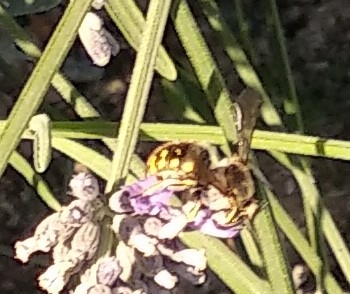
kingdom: Animalia
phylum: Arthropoda
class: Insecta
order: Hymenoptera
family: Megachilidae
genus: Anthidium
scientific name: Anthidium manicatum
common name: Wool carder bee
